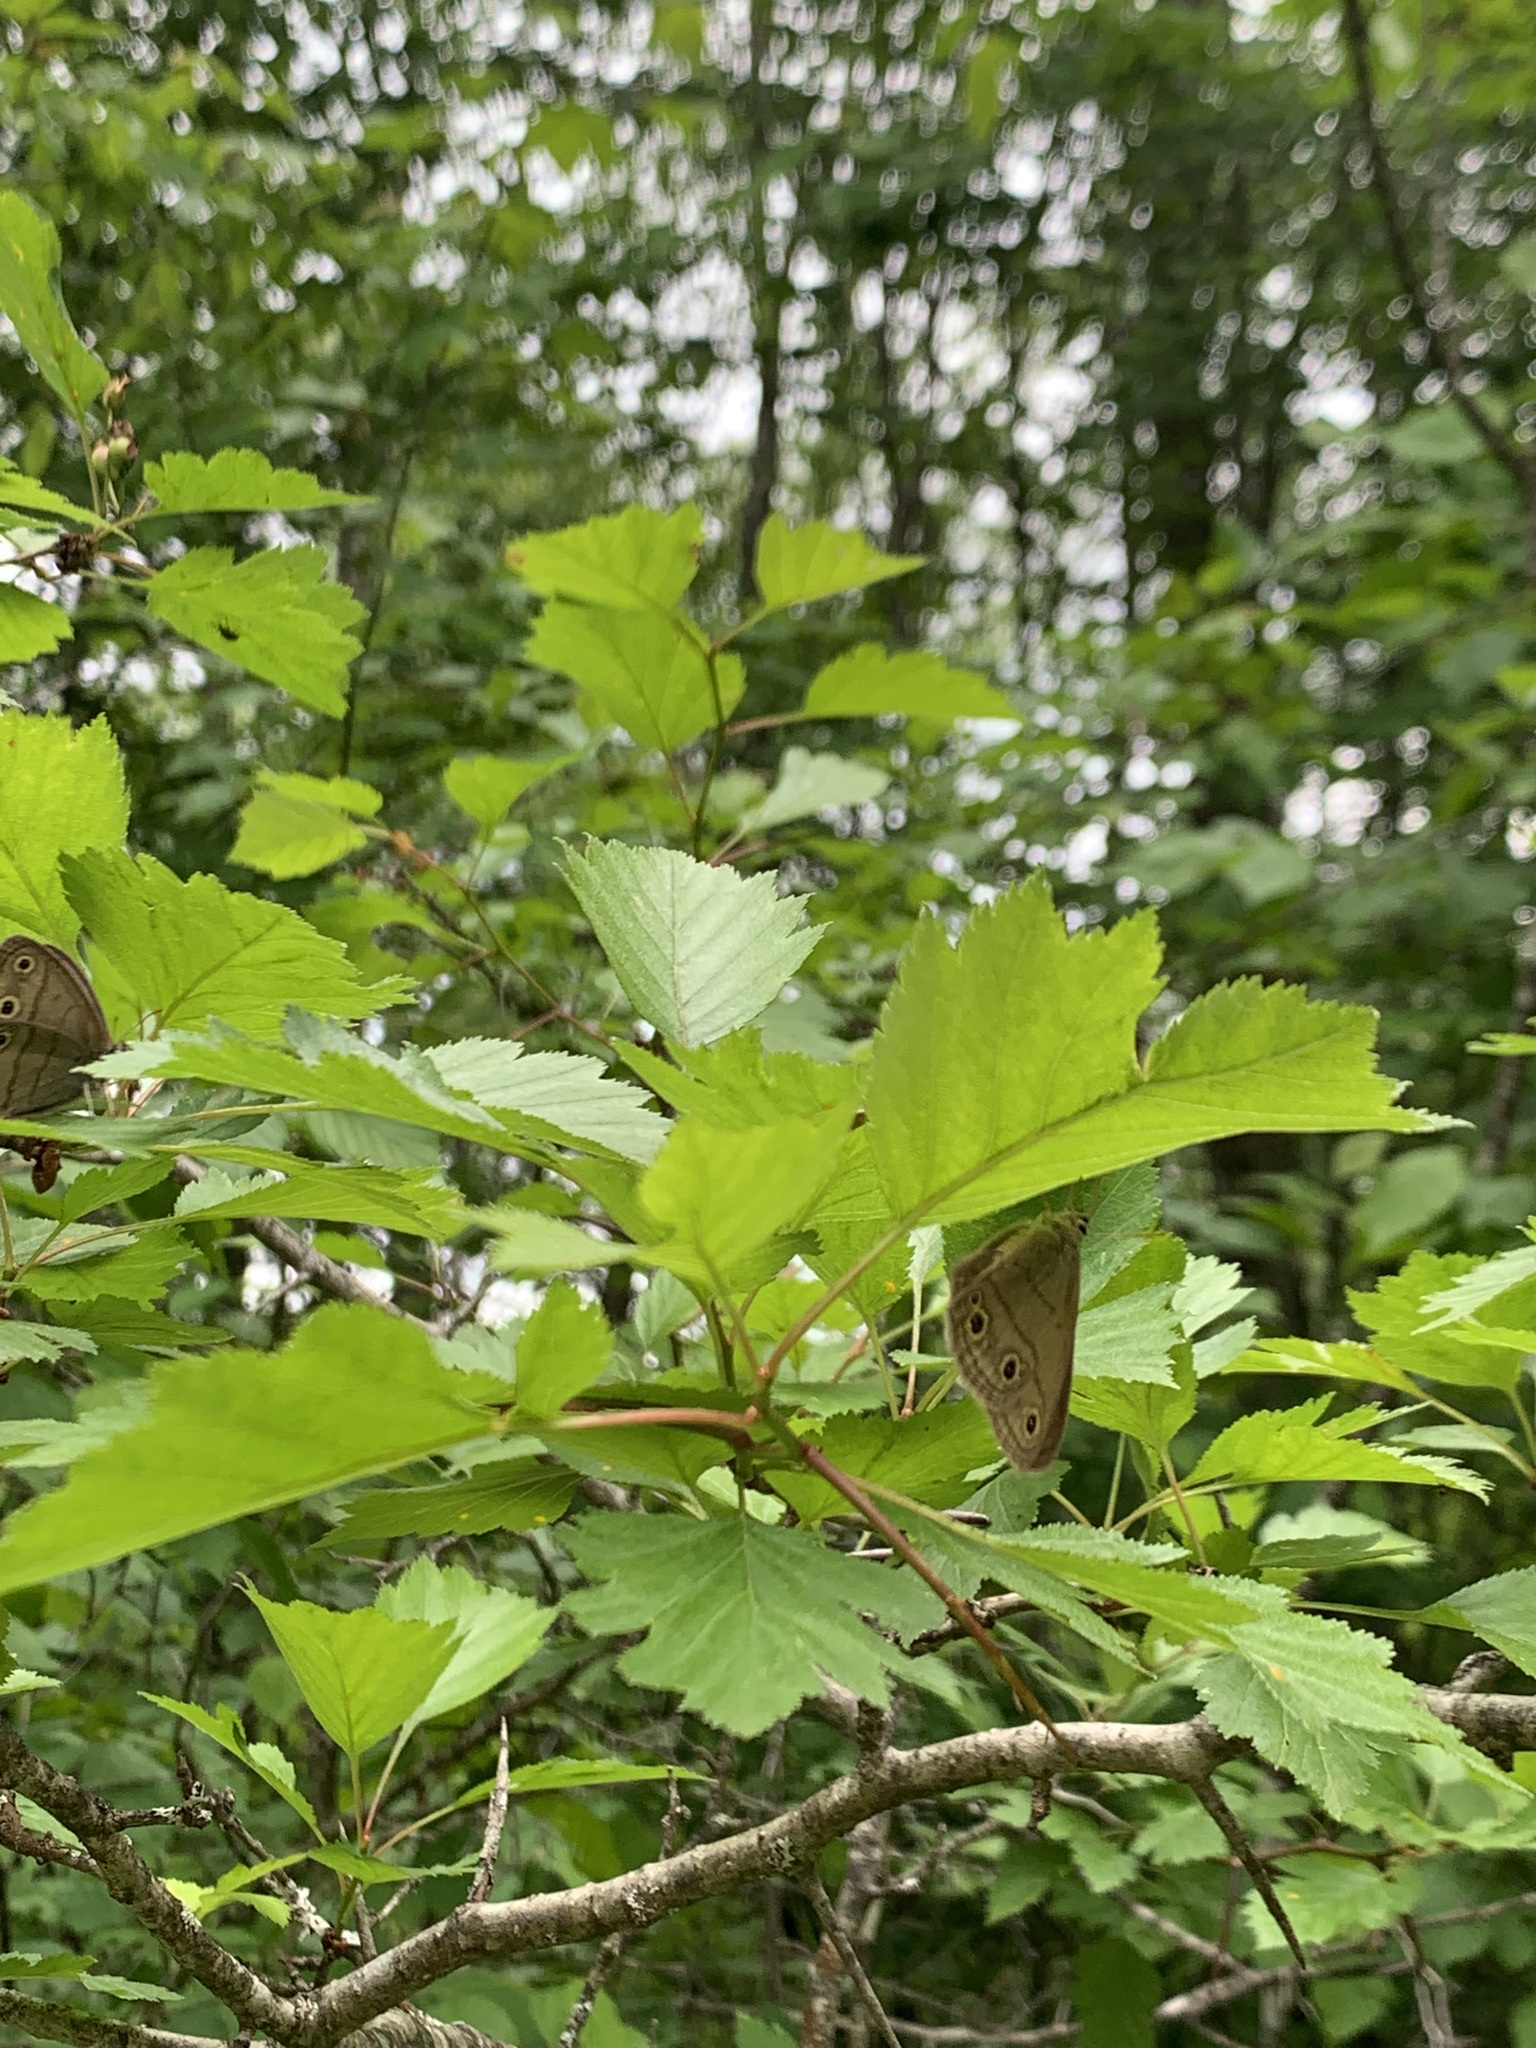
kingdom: Animalia
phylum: Arthropoda
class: Insecta
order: Lepidoptera
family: Nymphalidae
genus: Euptychia
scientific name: Euptychia cymela
